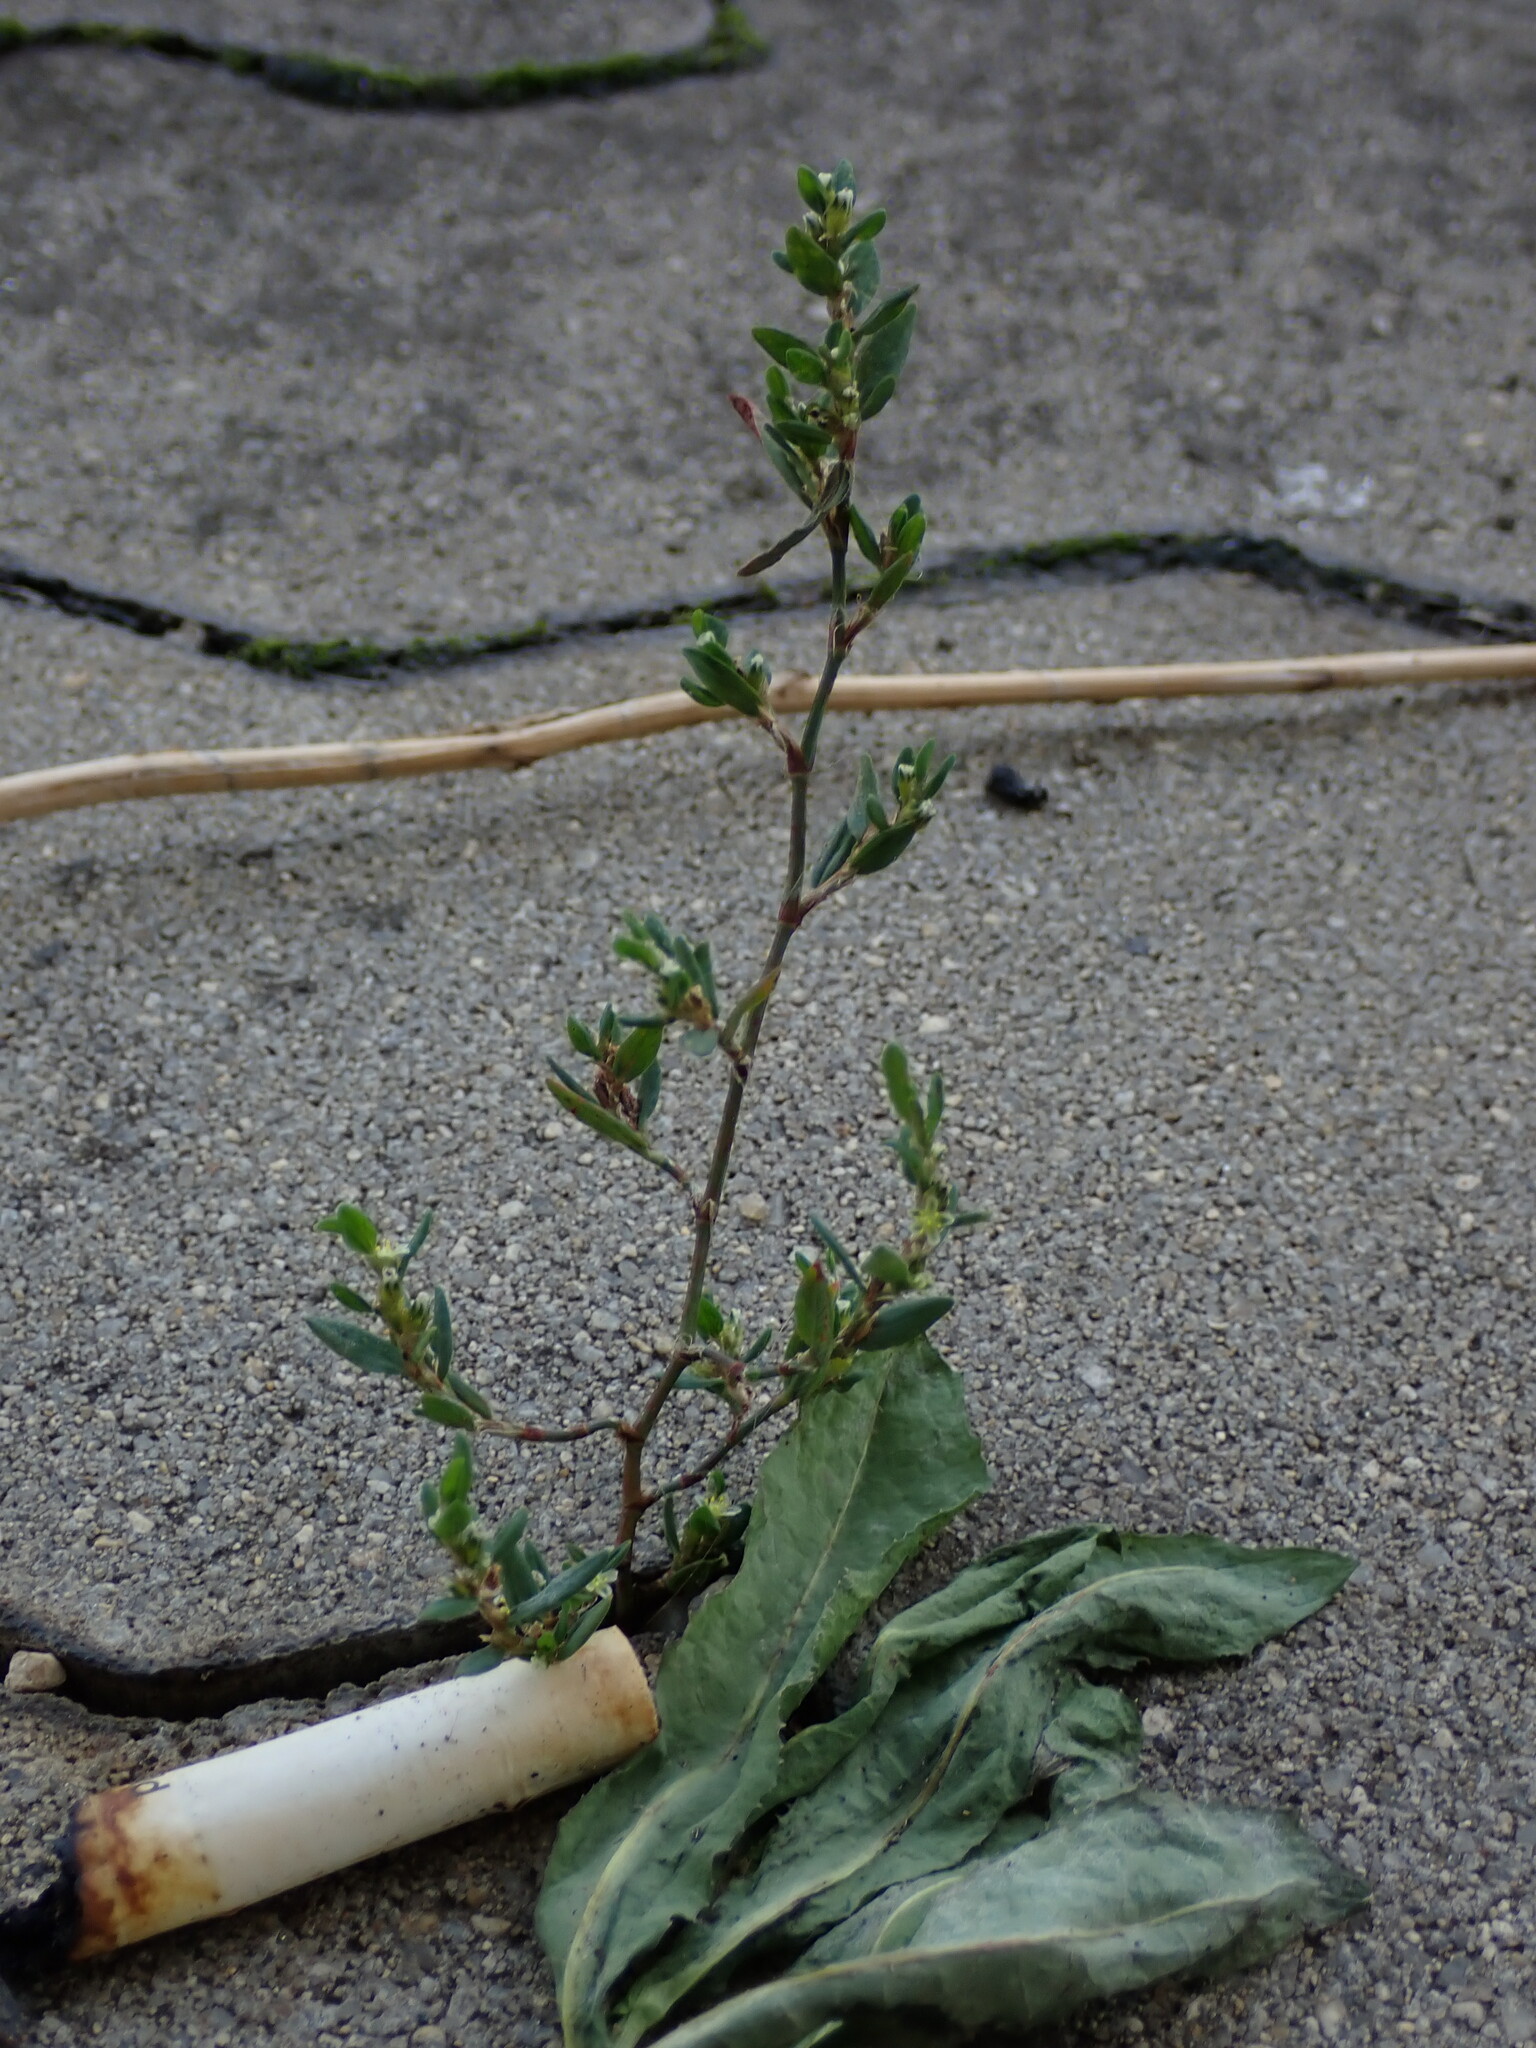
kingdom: Plantae
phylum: Tracheophyta
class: Magnoliopsida
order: Caryophyllales
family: Polygonaceae
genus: Polygonum
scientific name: Polygonum aviculare
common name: Prostrate knotweed
